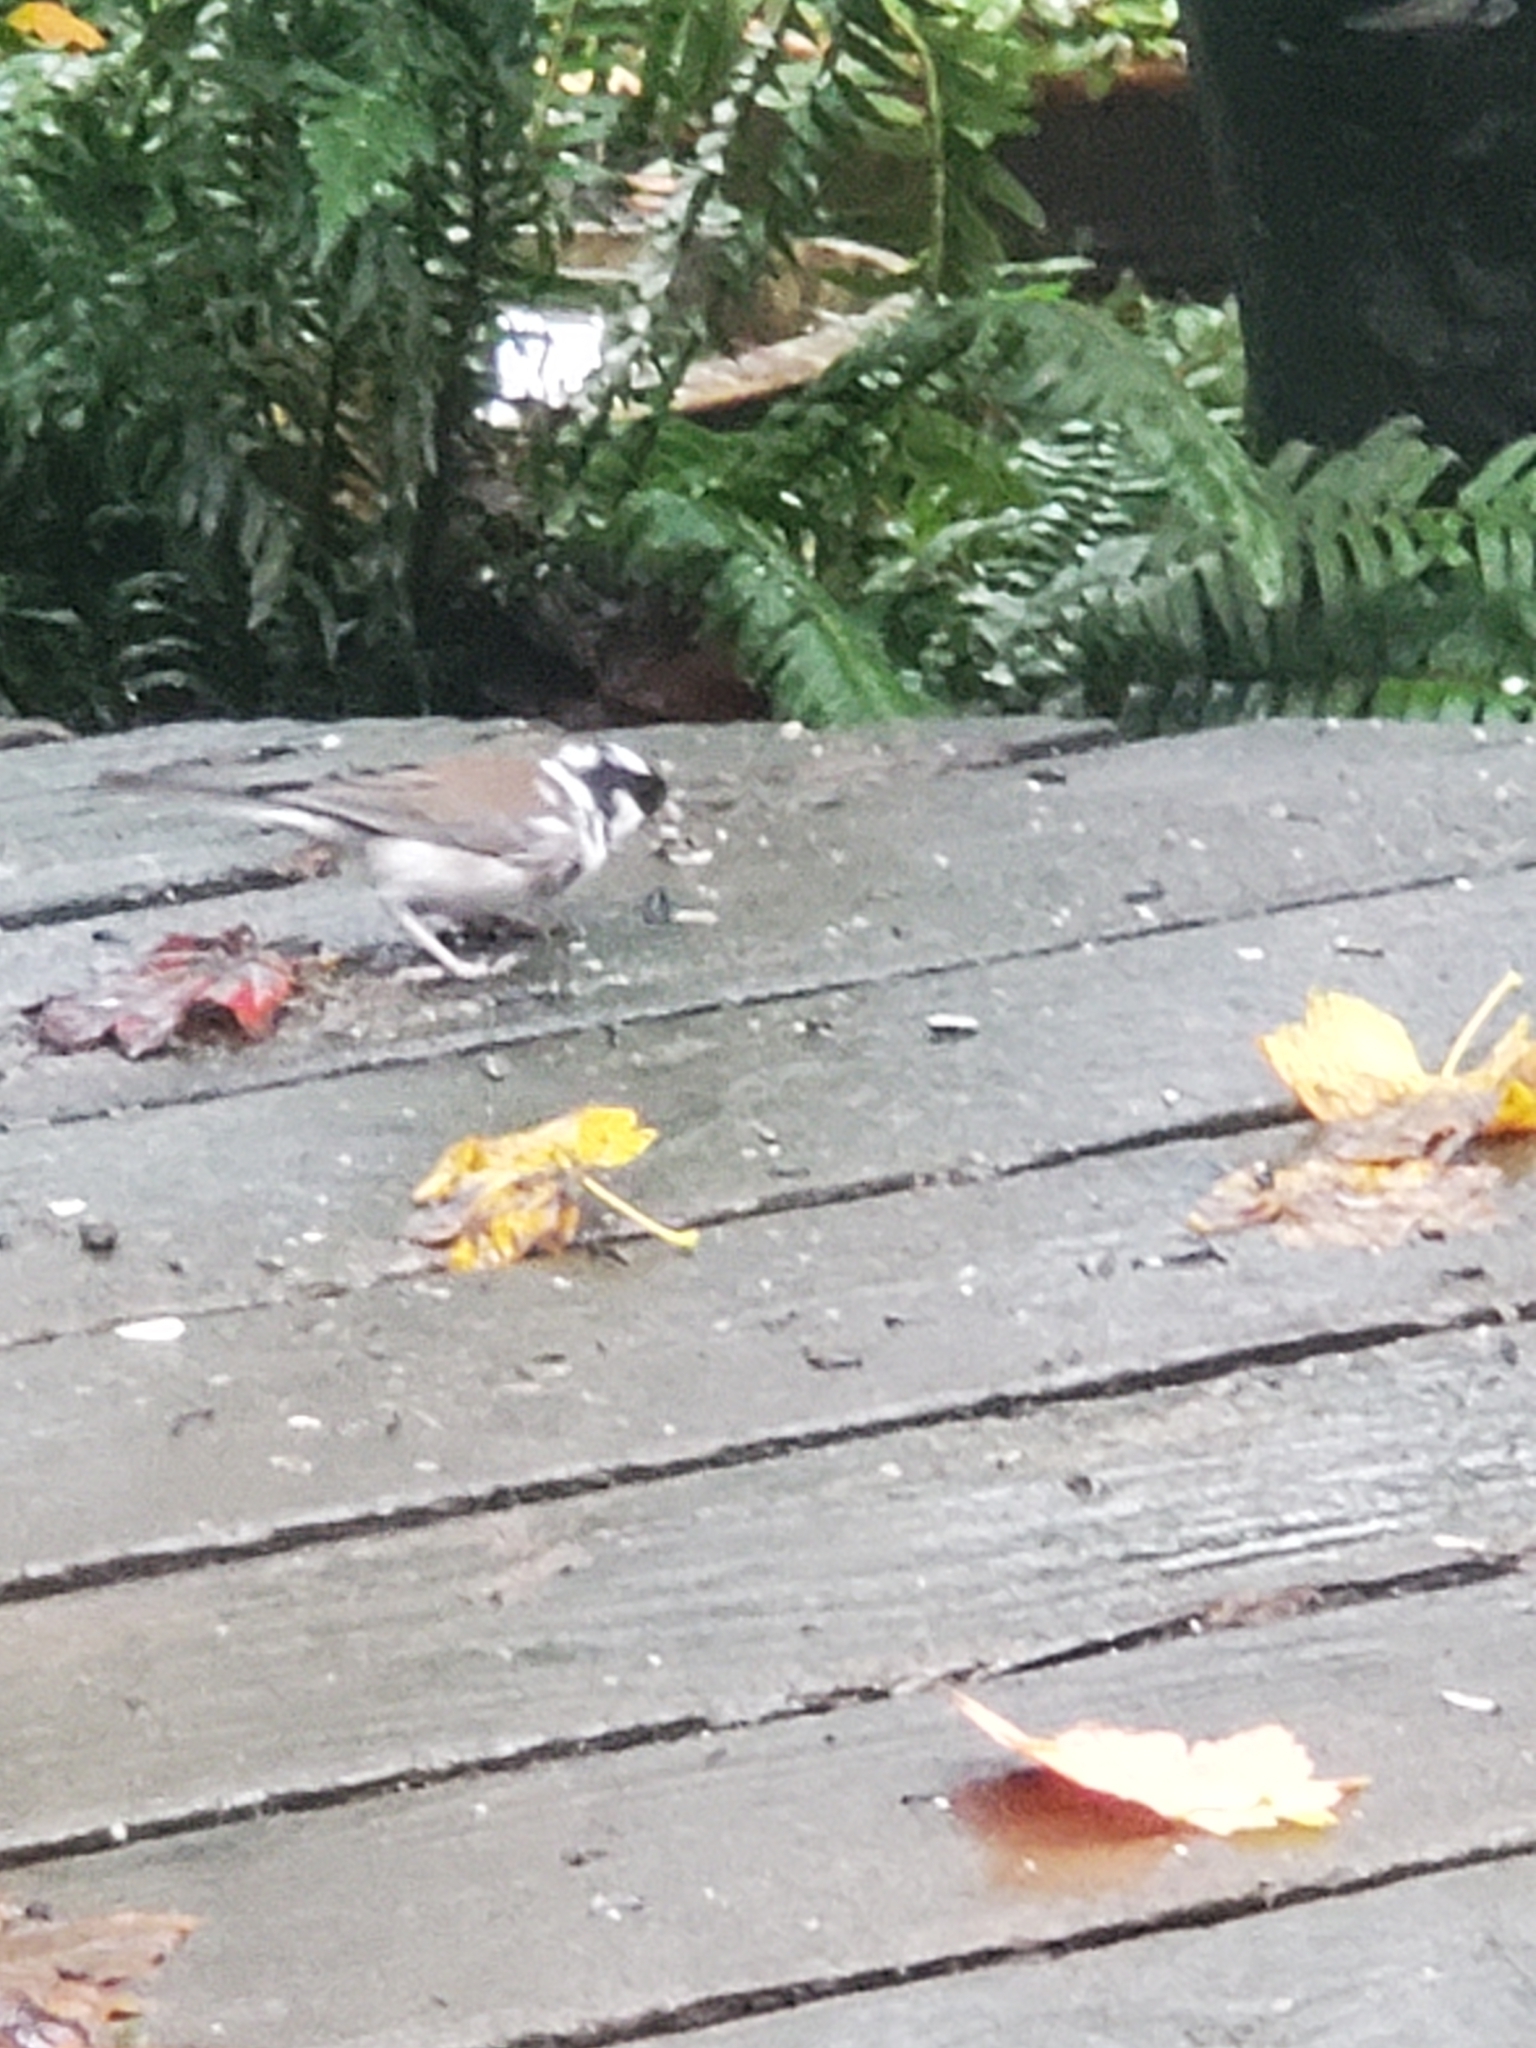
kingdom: Animalia
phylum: Chordata
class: Aves
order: Passeriformes
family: Passerellidae
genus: Junco
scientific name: Junco hyemalis
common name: Dark-eyed junco
